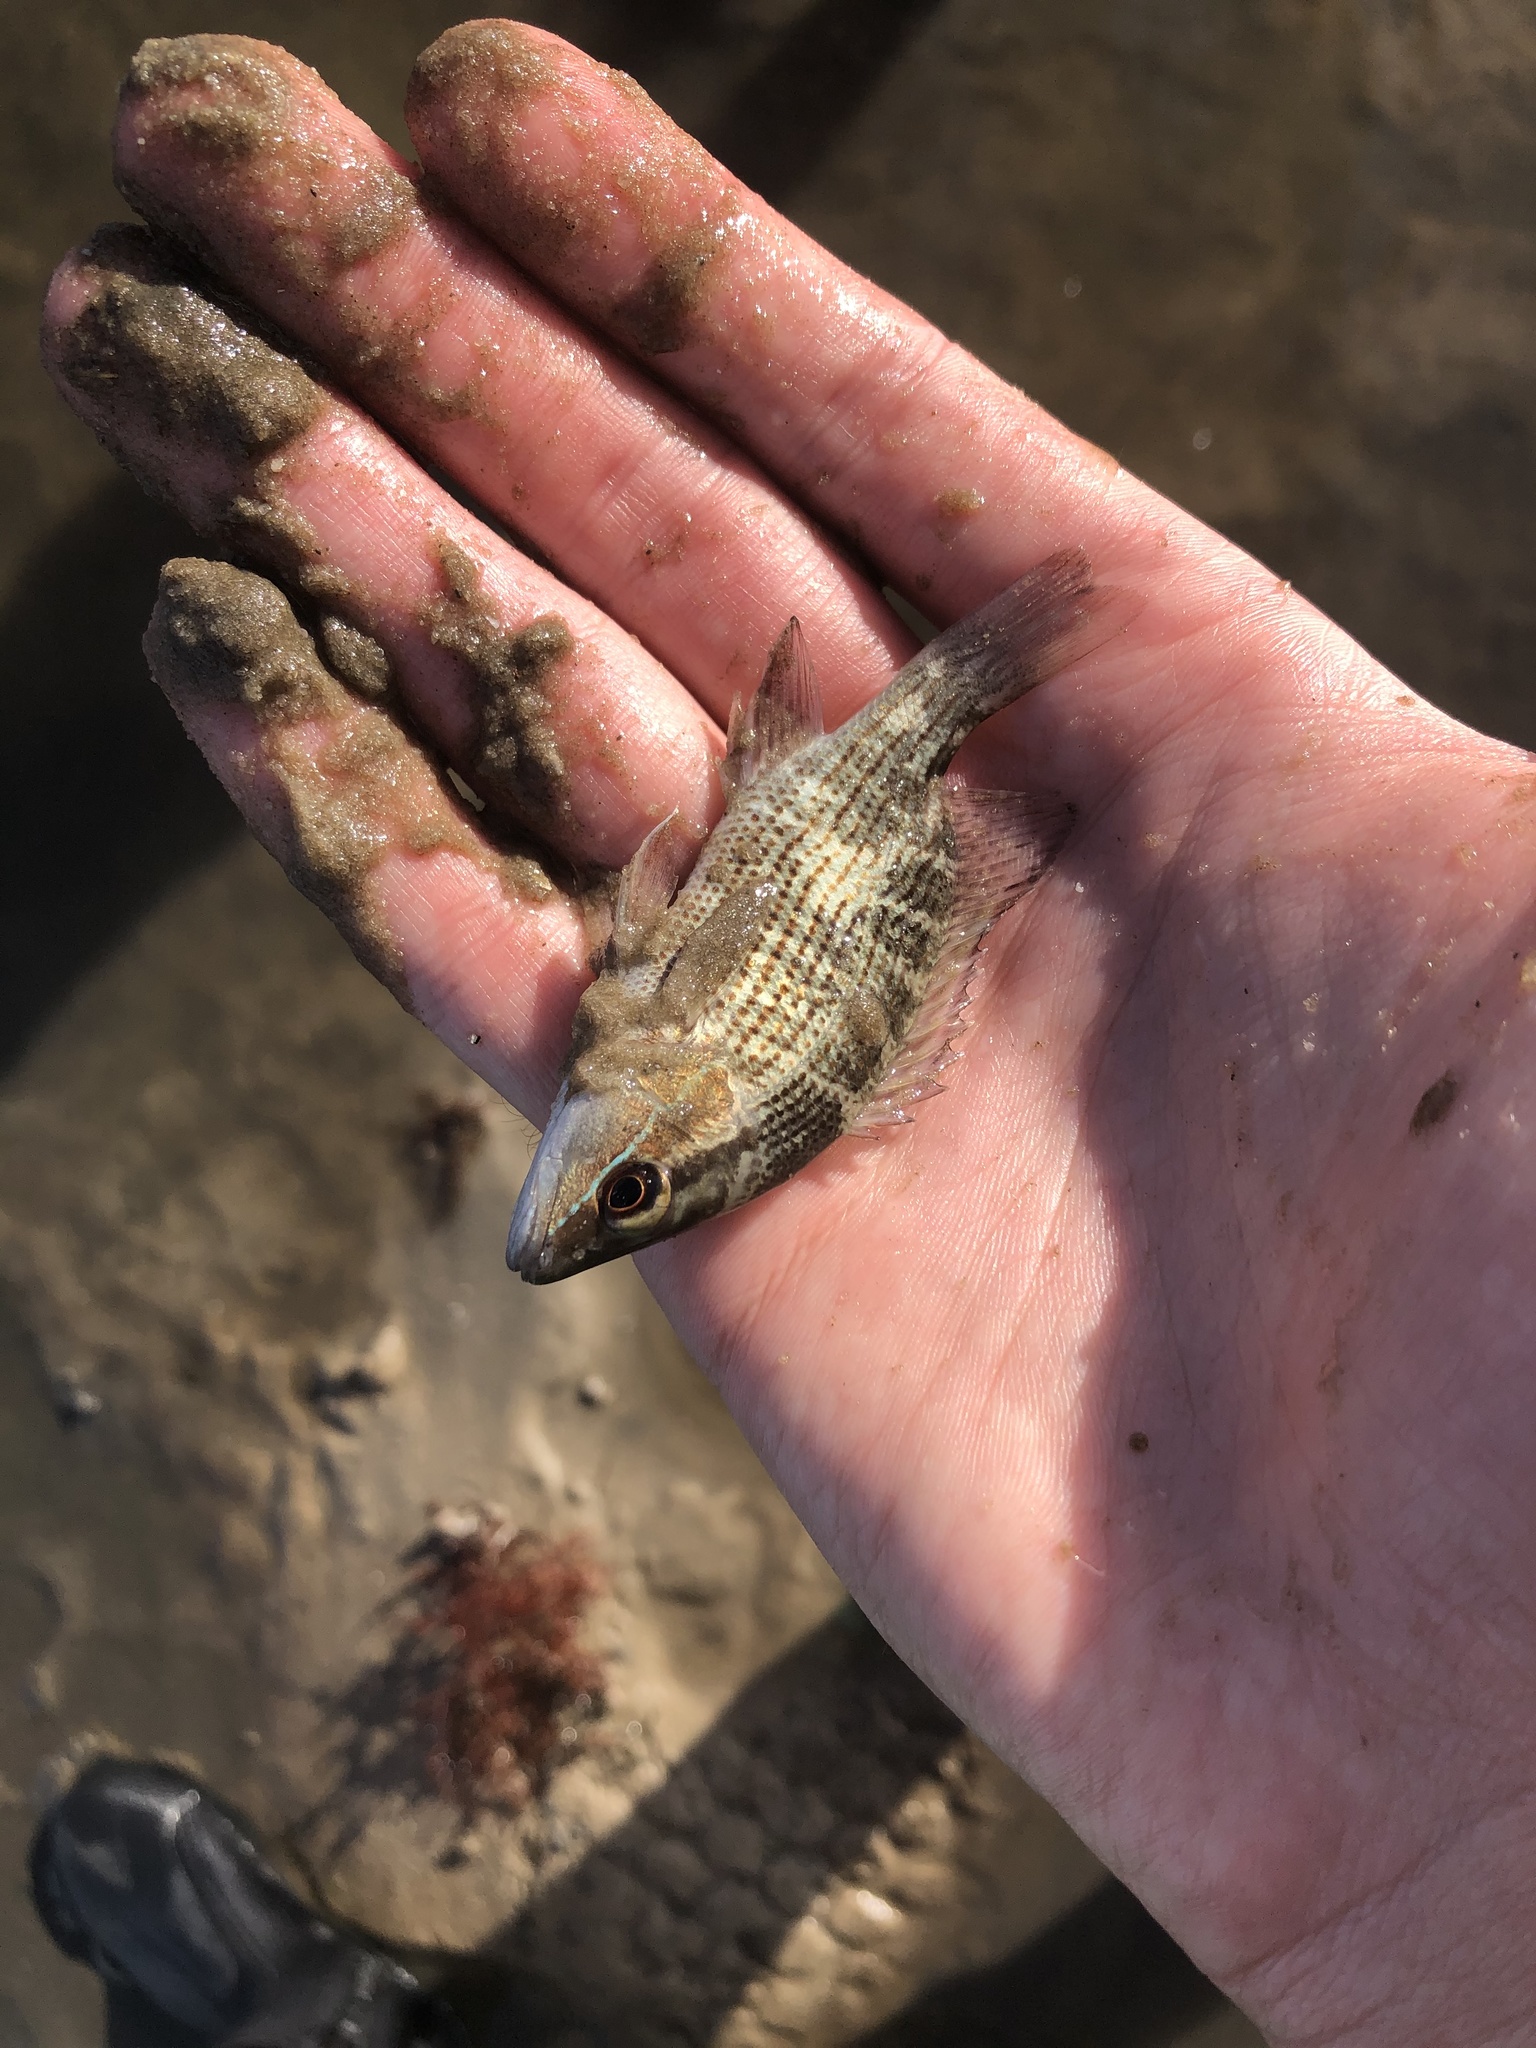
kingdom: Animalia
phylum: Chordata
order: Perciformes
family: Lutjanidae
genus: Lutjanus
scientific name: Lutjanus griseus
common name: Gray snapper
